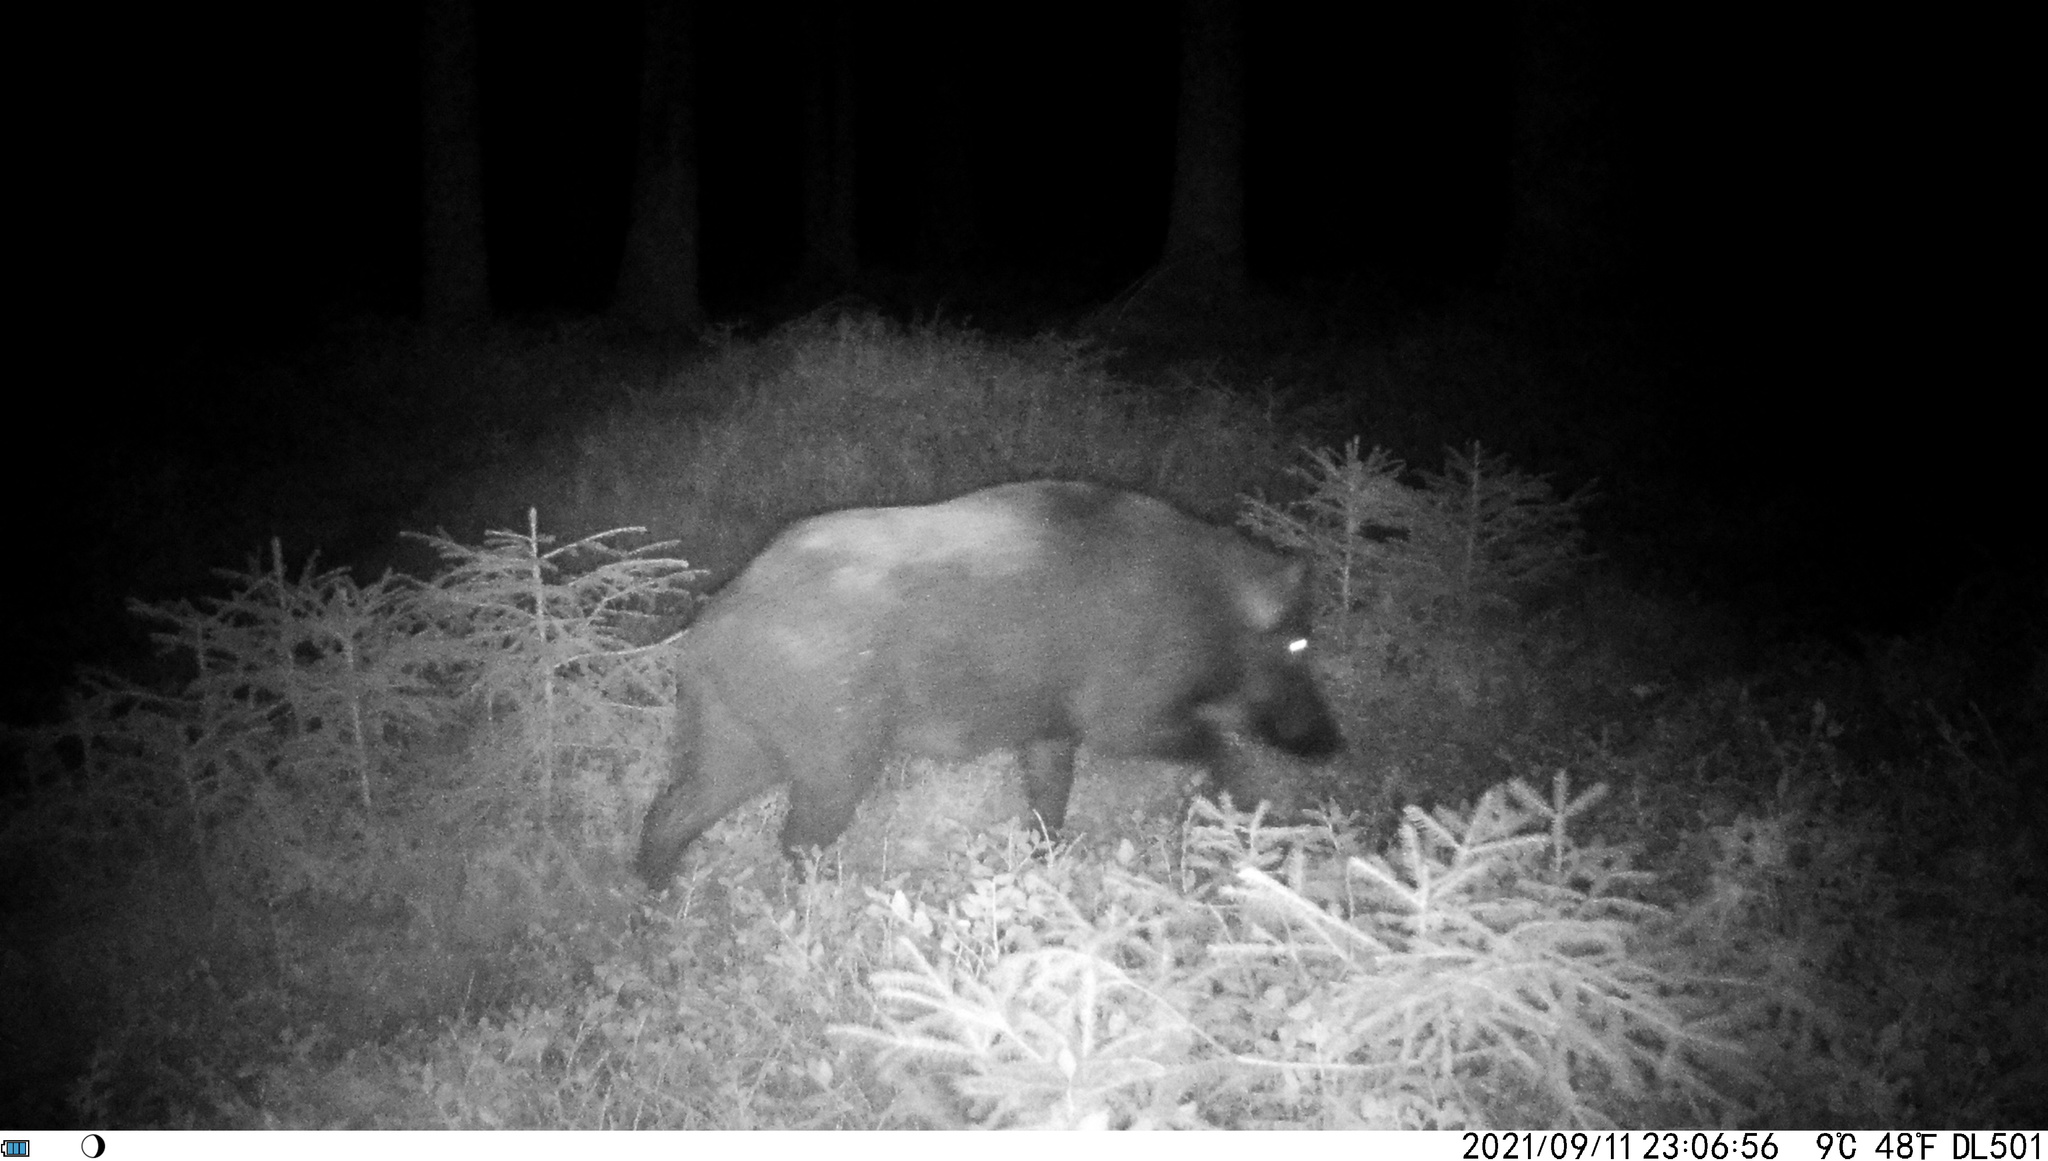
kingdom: Animalia
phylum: Chordata
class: Mammalia
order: Artiodactyla
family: Suidae
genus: Sus
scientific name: Sus scrofa
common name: Wild boar
